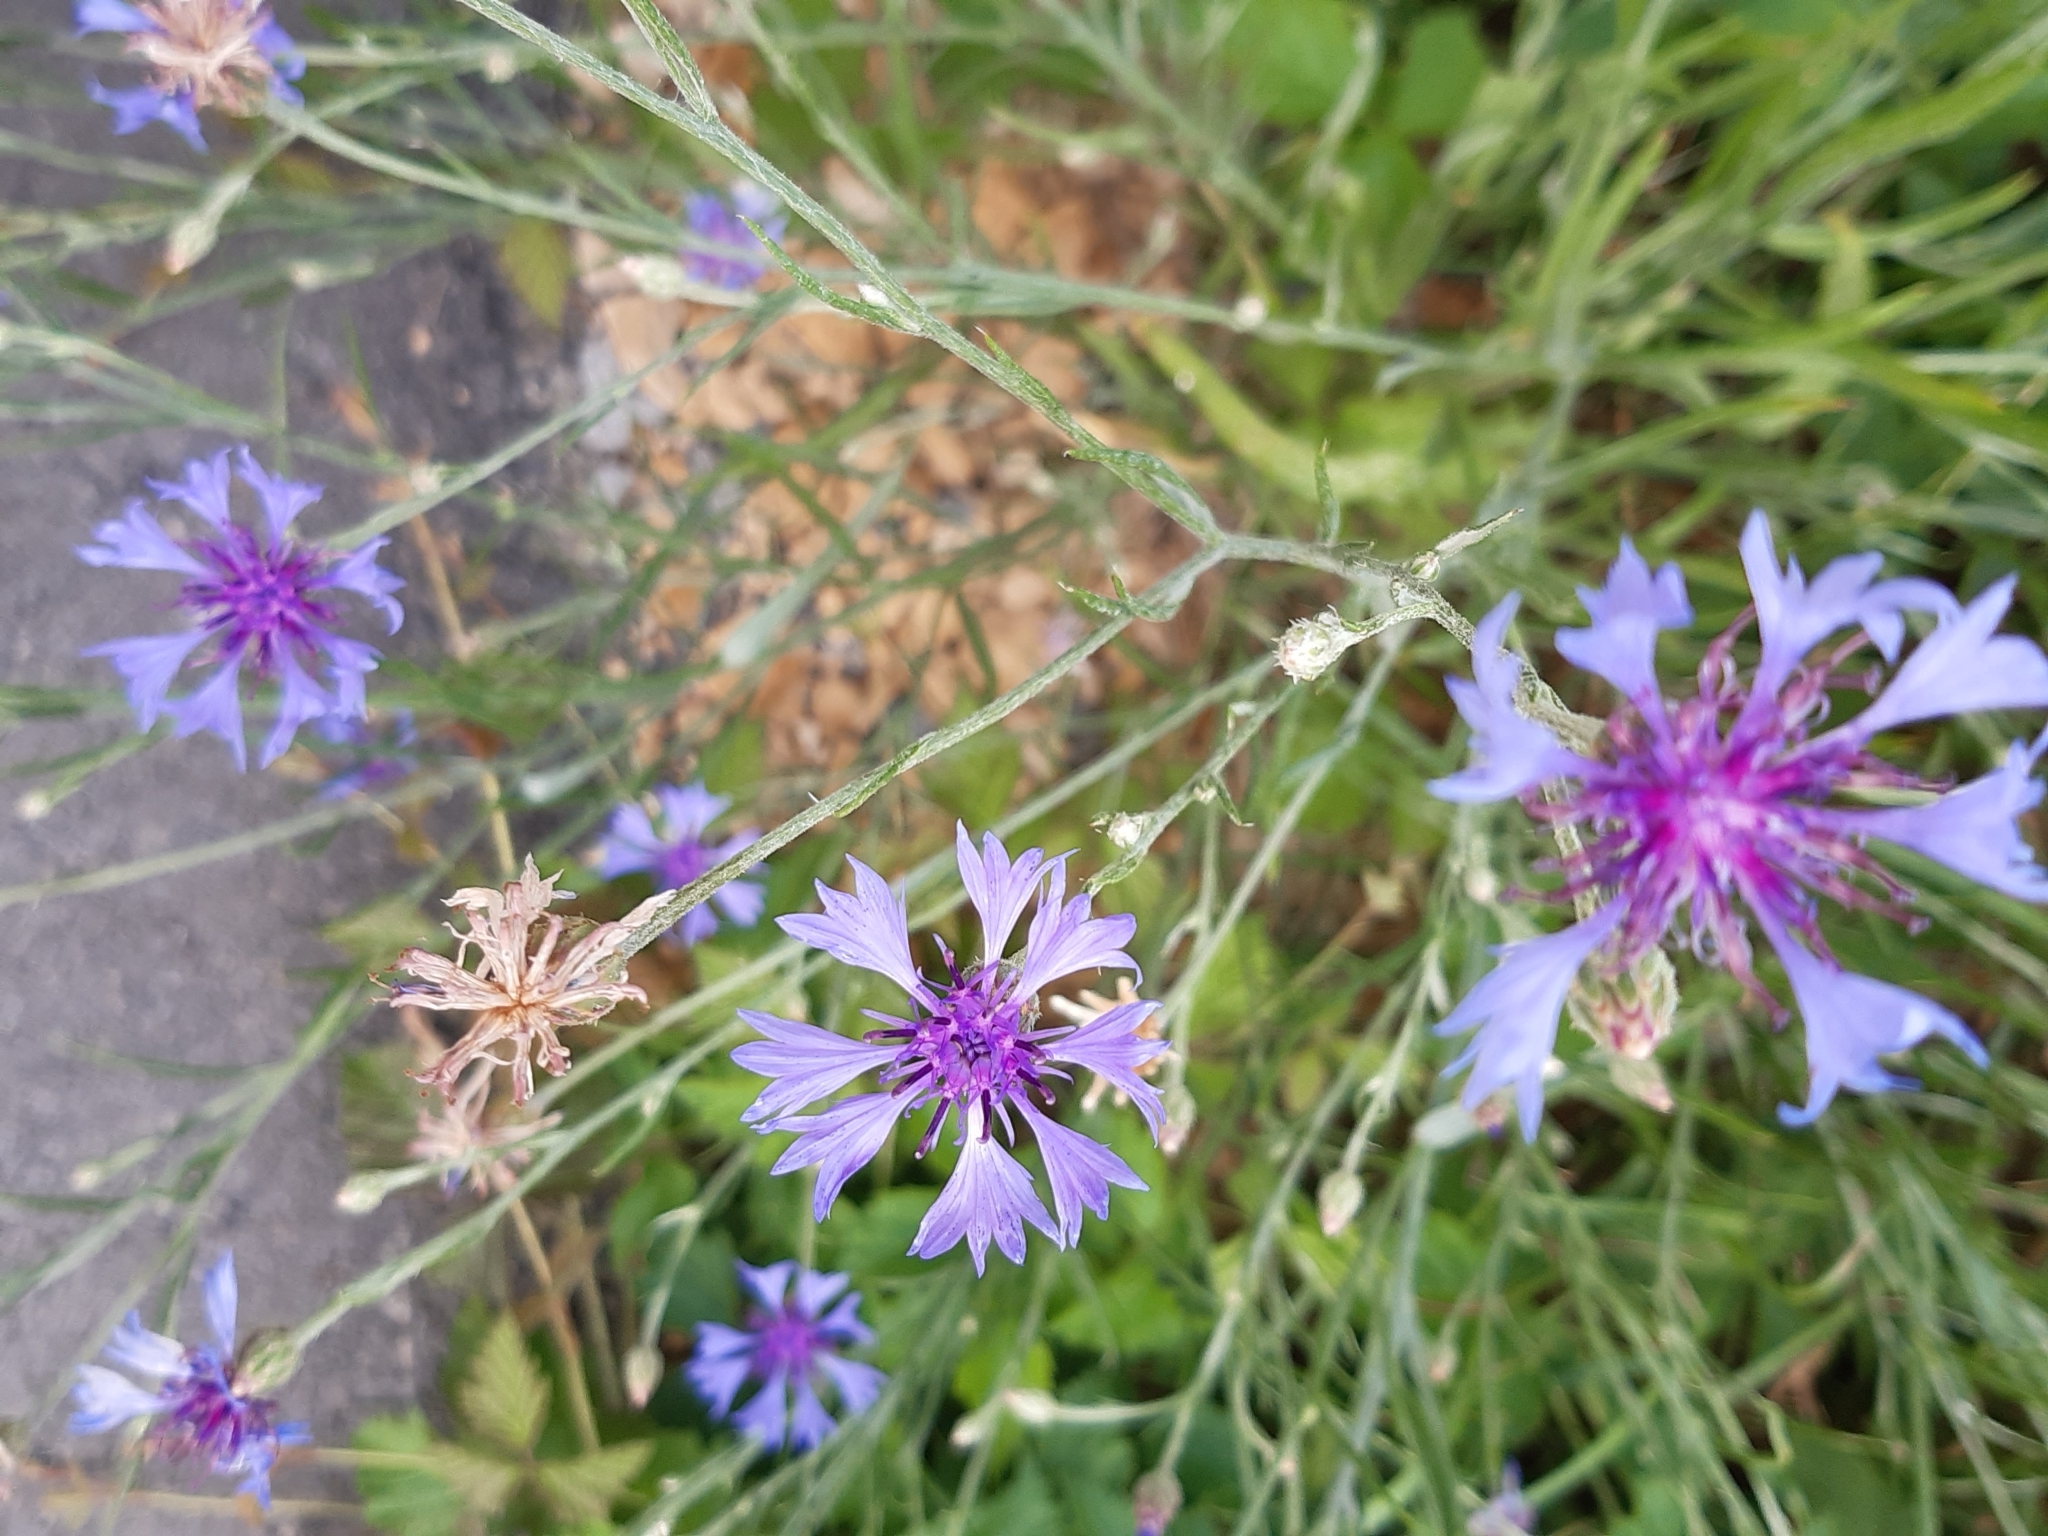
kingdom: Plantae
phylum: Tracheophyta
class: Magnoliopsida
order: Asterales
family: Asteraceae
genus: Centaurea
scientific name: Centaurea cyanus
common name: Cornflower
